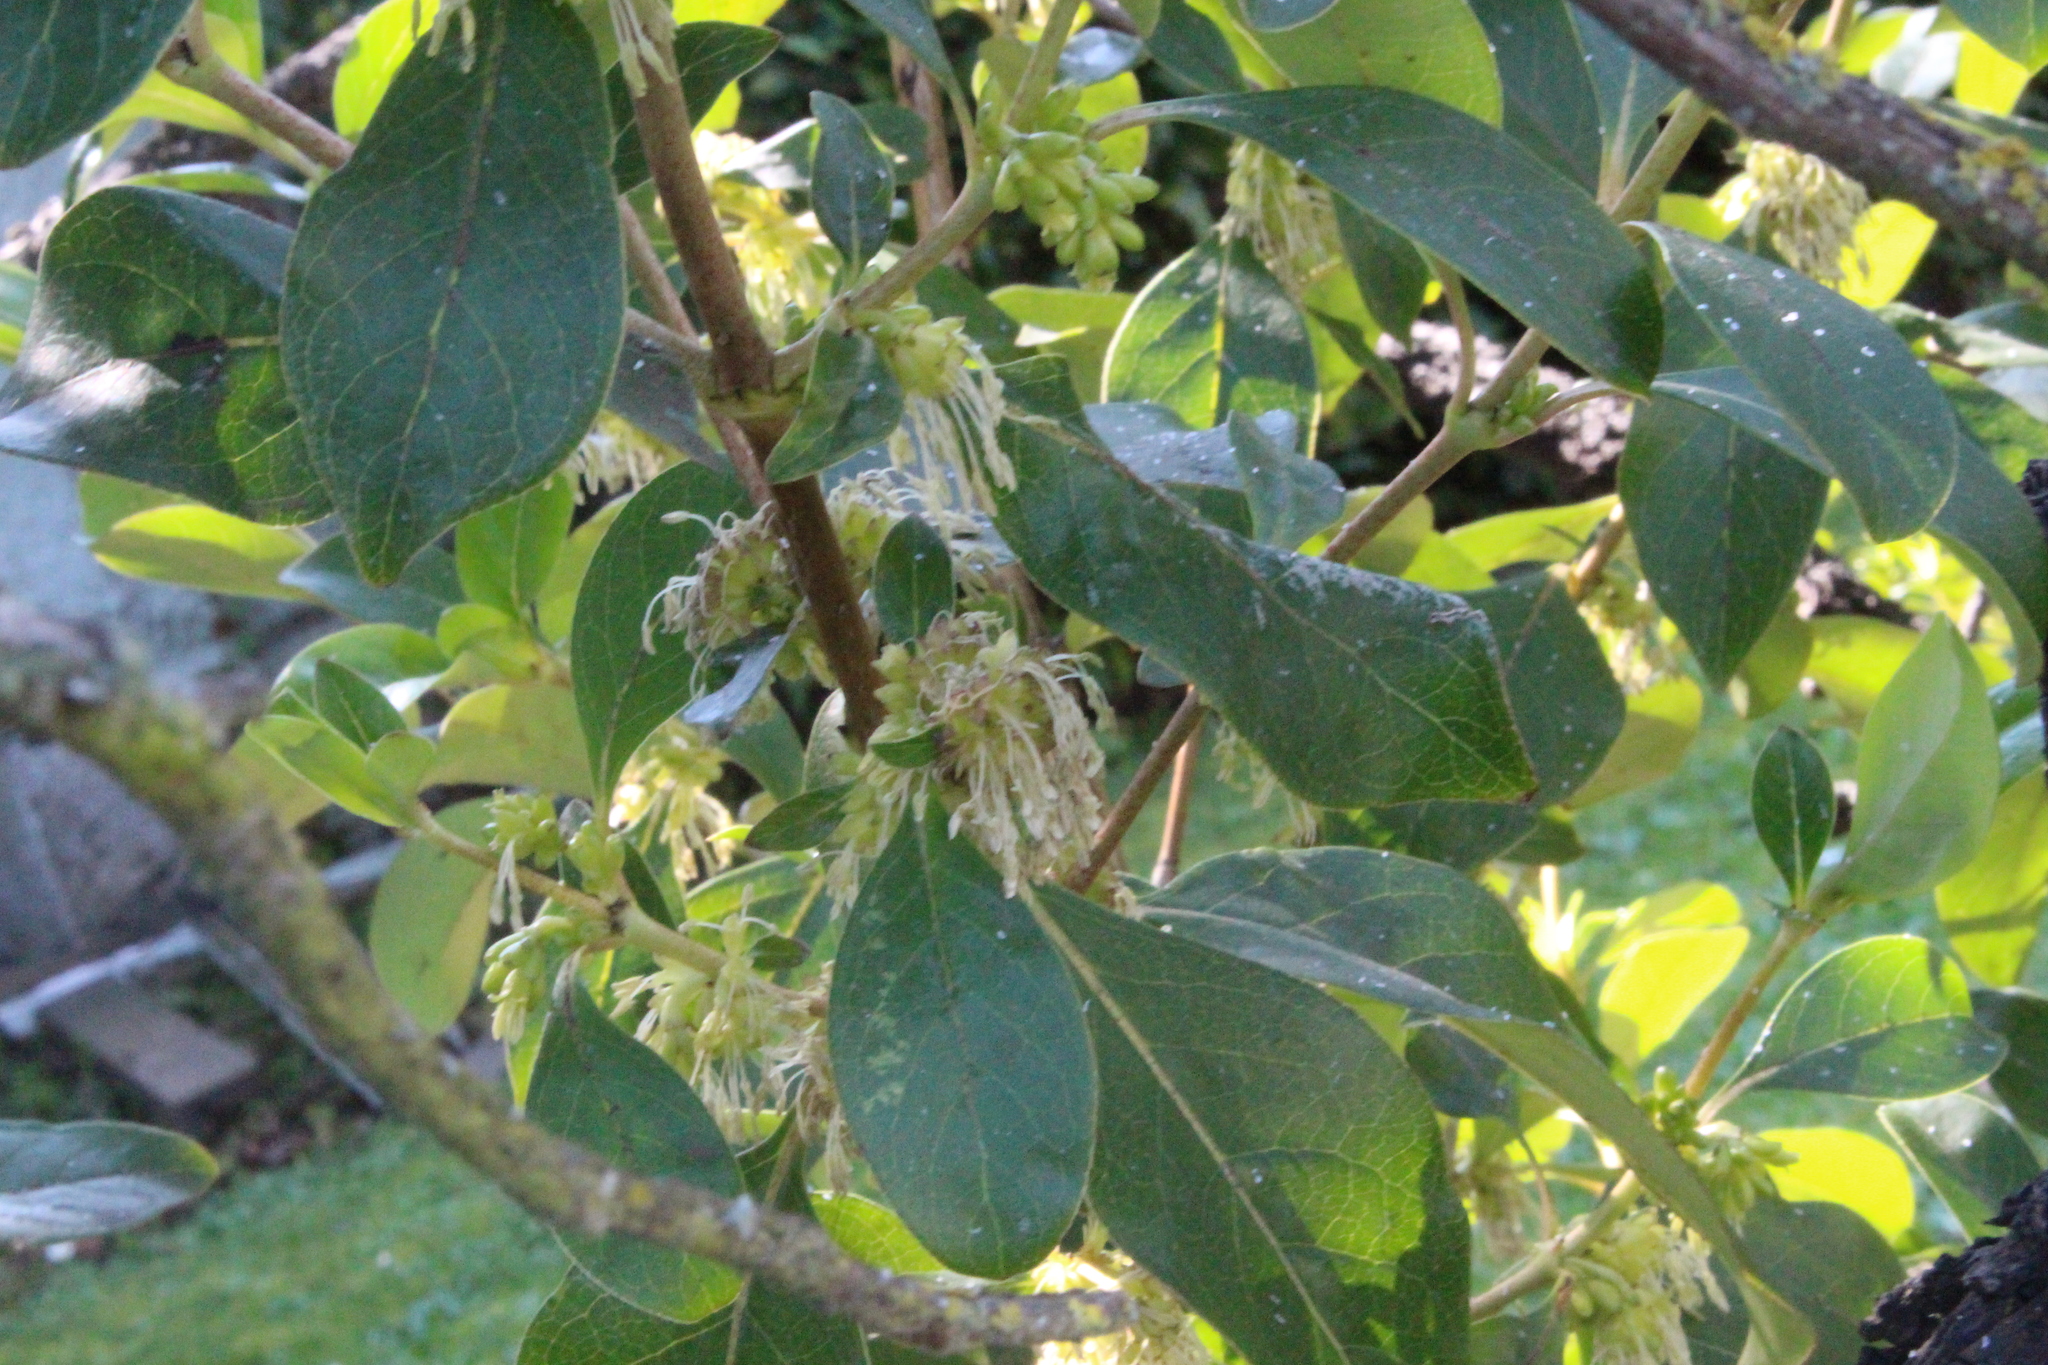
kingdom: Plantae
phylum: Tracheophyta
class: Magnoliopsida
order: Gentianales
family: Rubiaceae
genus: Coprosma
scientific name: Coprosma robusta
